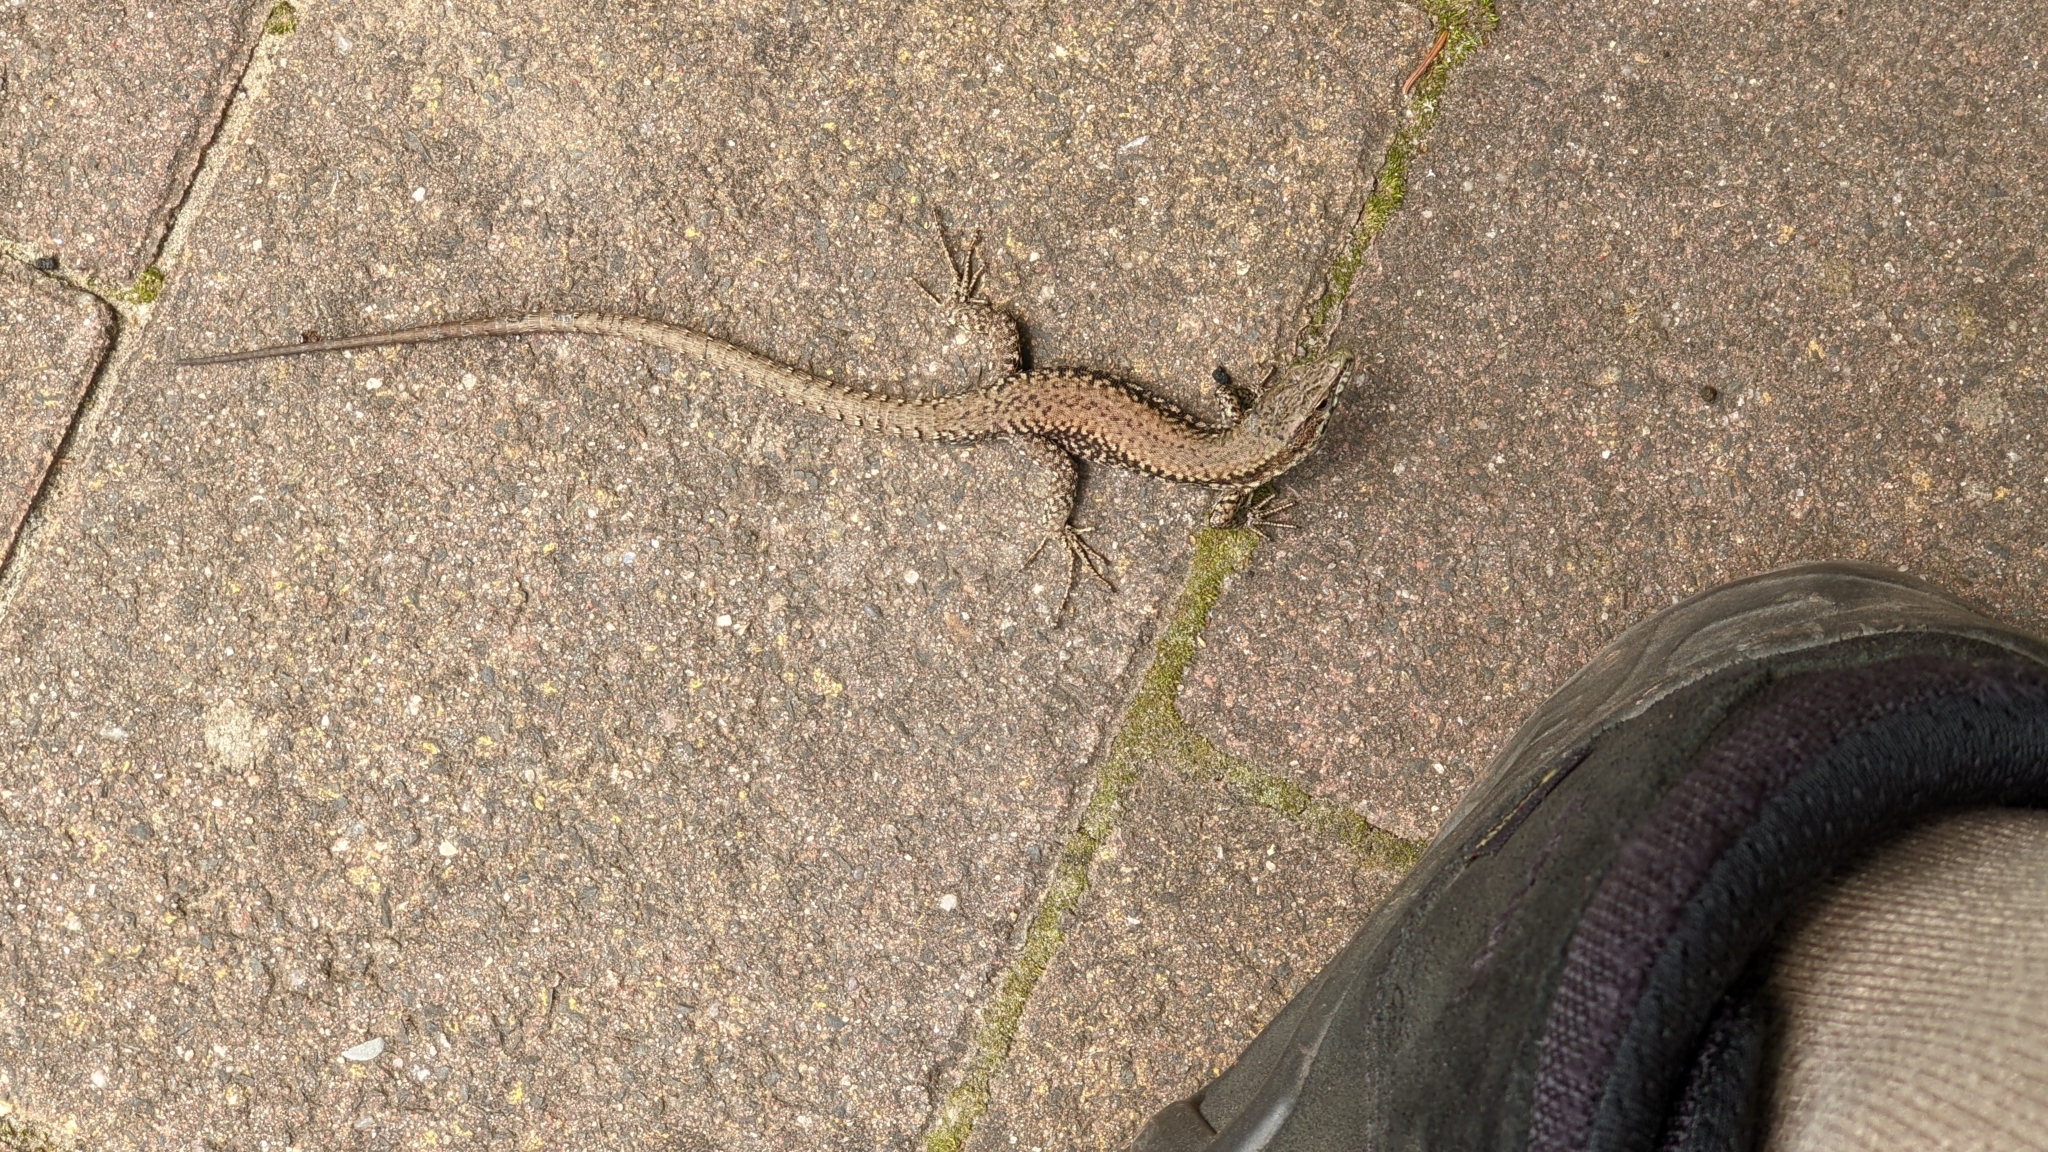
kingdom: Animalia
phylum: Chordata
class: Squamata
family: Lacertidae
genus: Podarcis
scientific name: Podarcis muralis
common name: Common wall lizard
